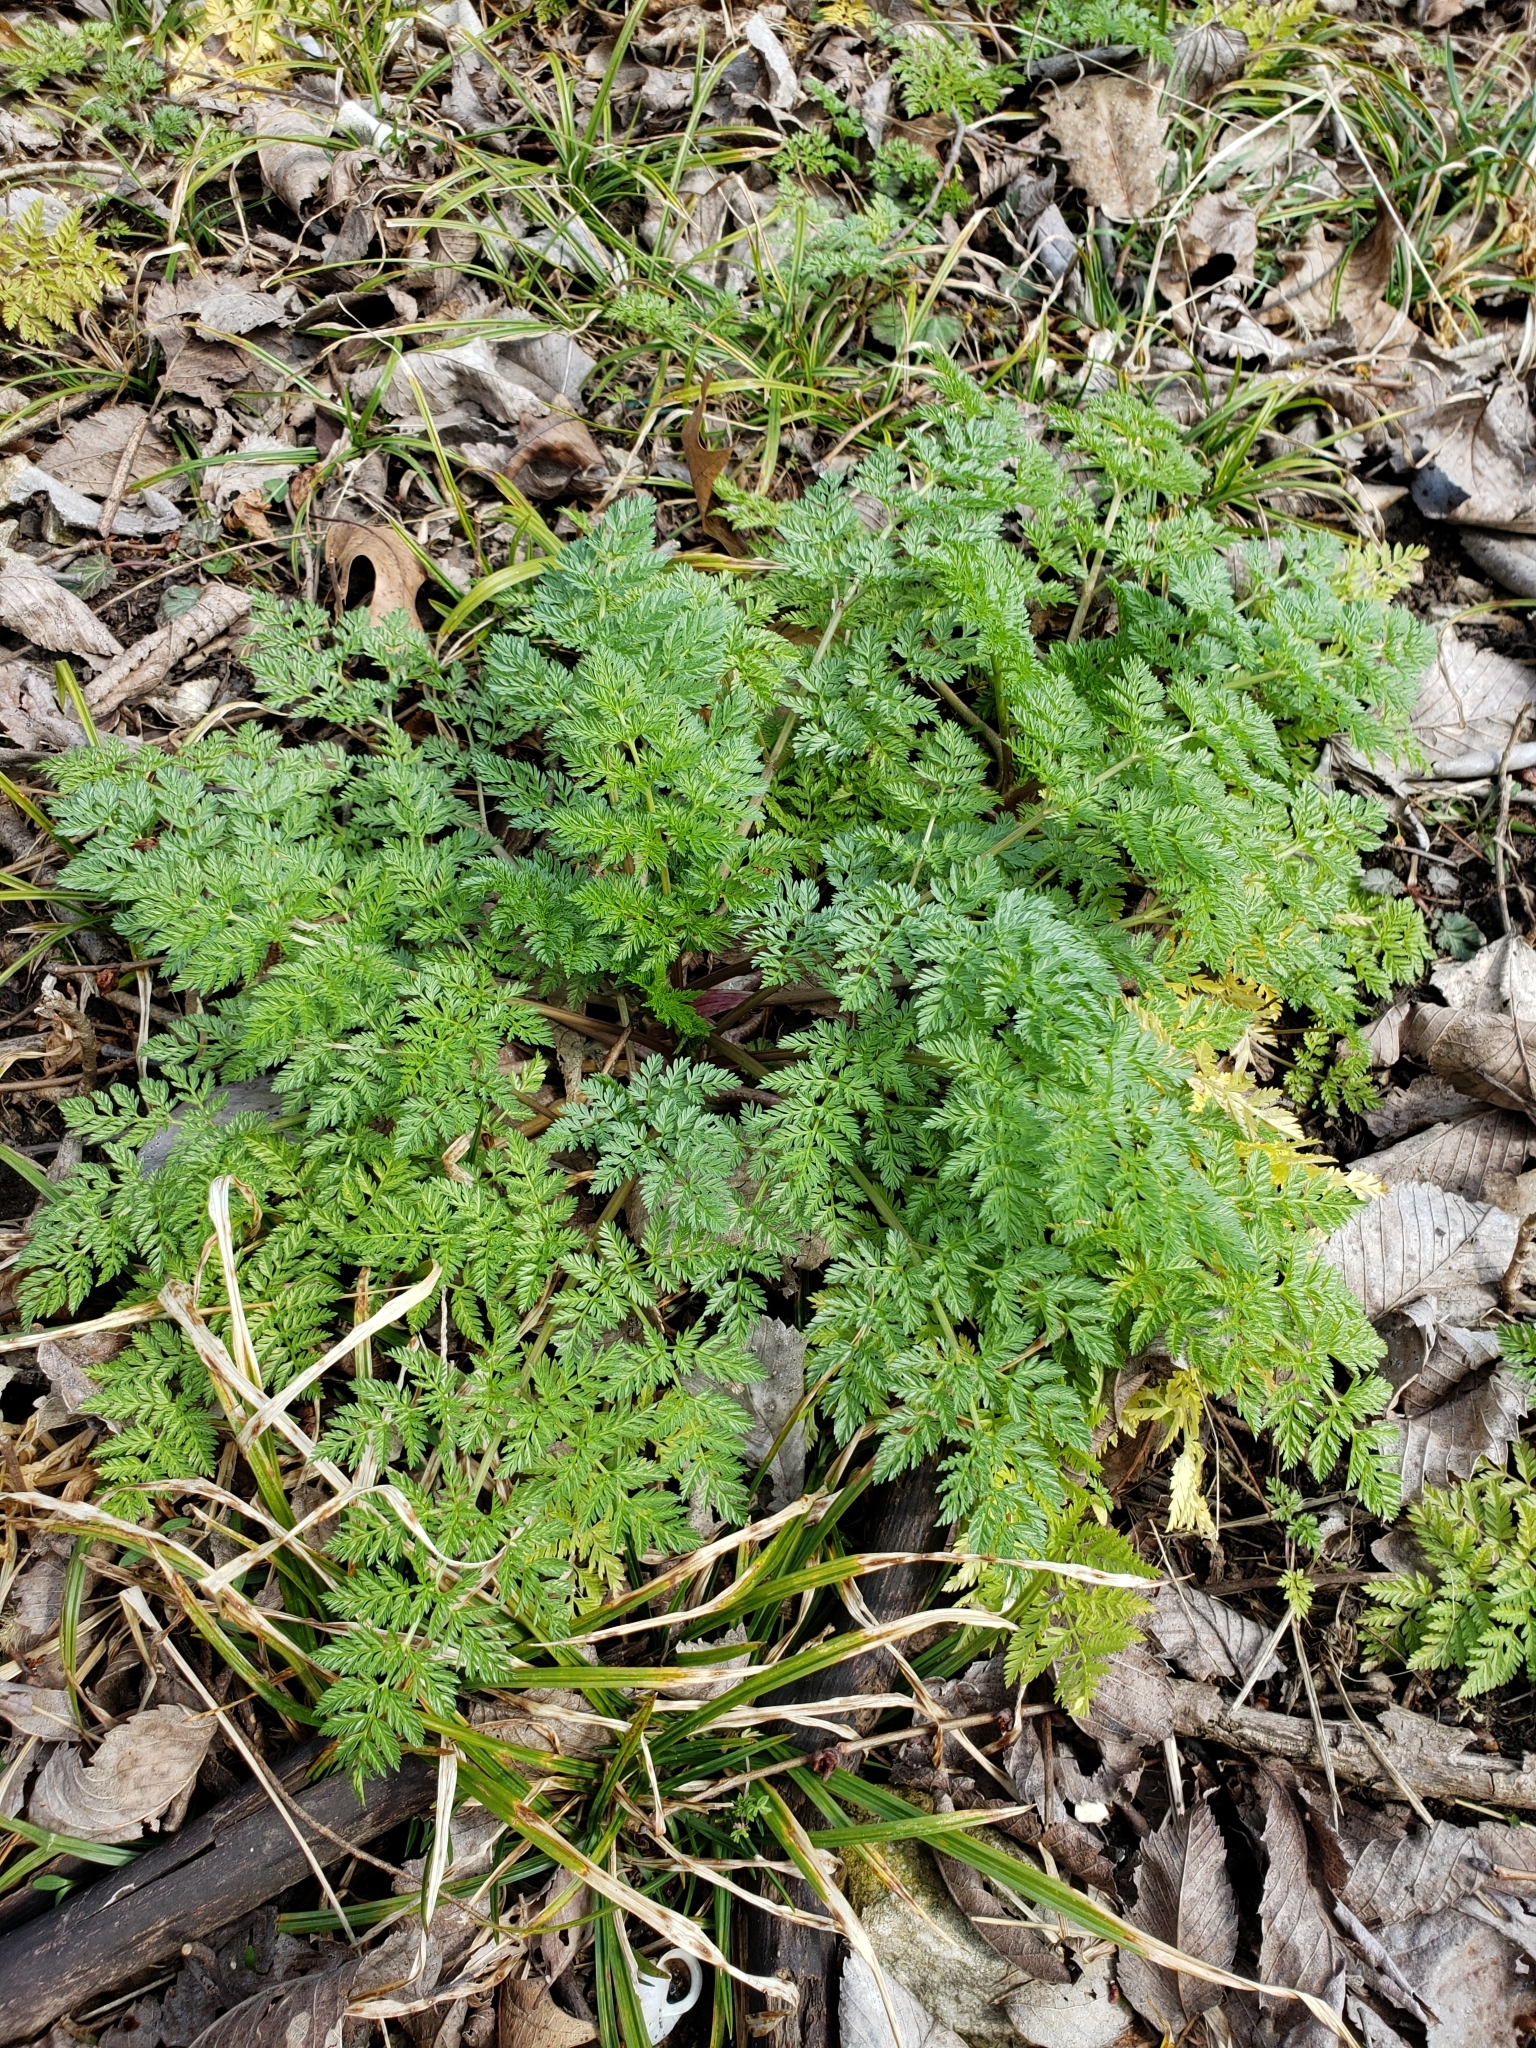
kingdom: Plantae
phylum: Tracheophyta
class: Magnoliopsida
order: Apiales
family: Apiaceae
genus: Conium
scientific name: Conium maculatum
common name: Hemlock
